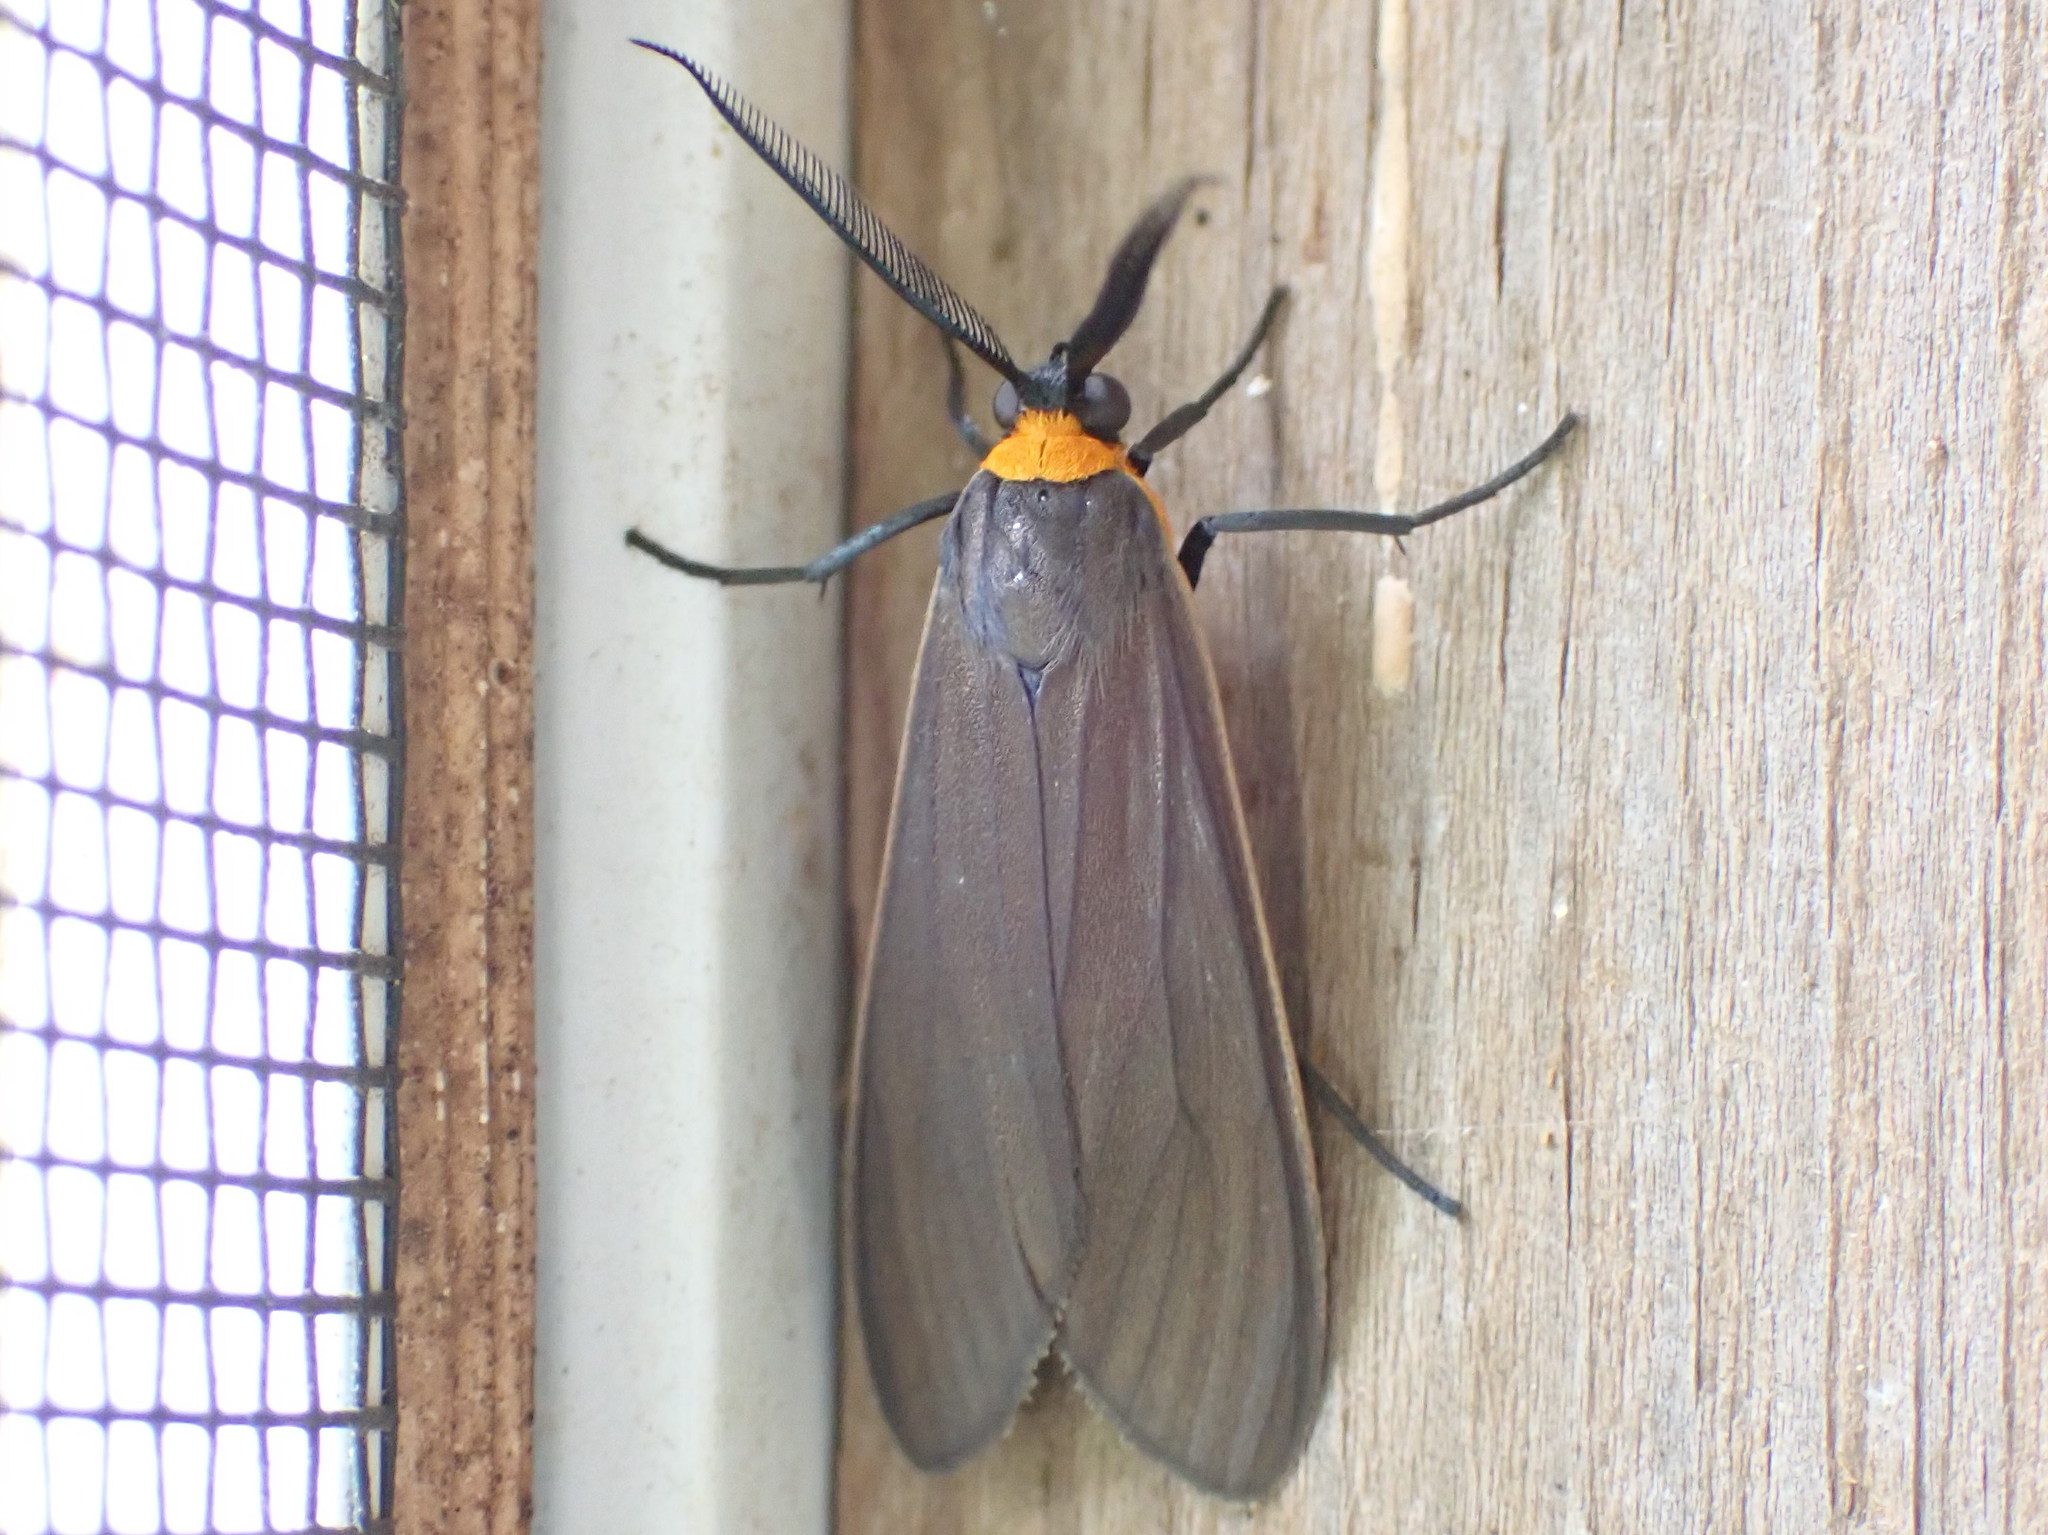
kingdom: Animalia
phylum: Arthropoda
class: Insecta
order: Lepidoptera
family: Erebidae
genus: Cisseps
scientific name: Cisseps fulvicollis
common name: Yellow-collared scape moth
